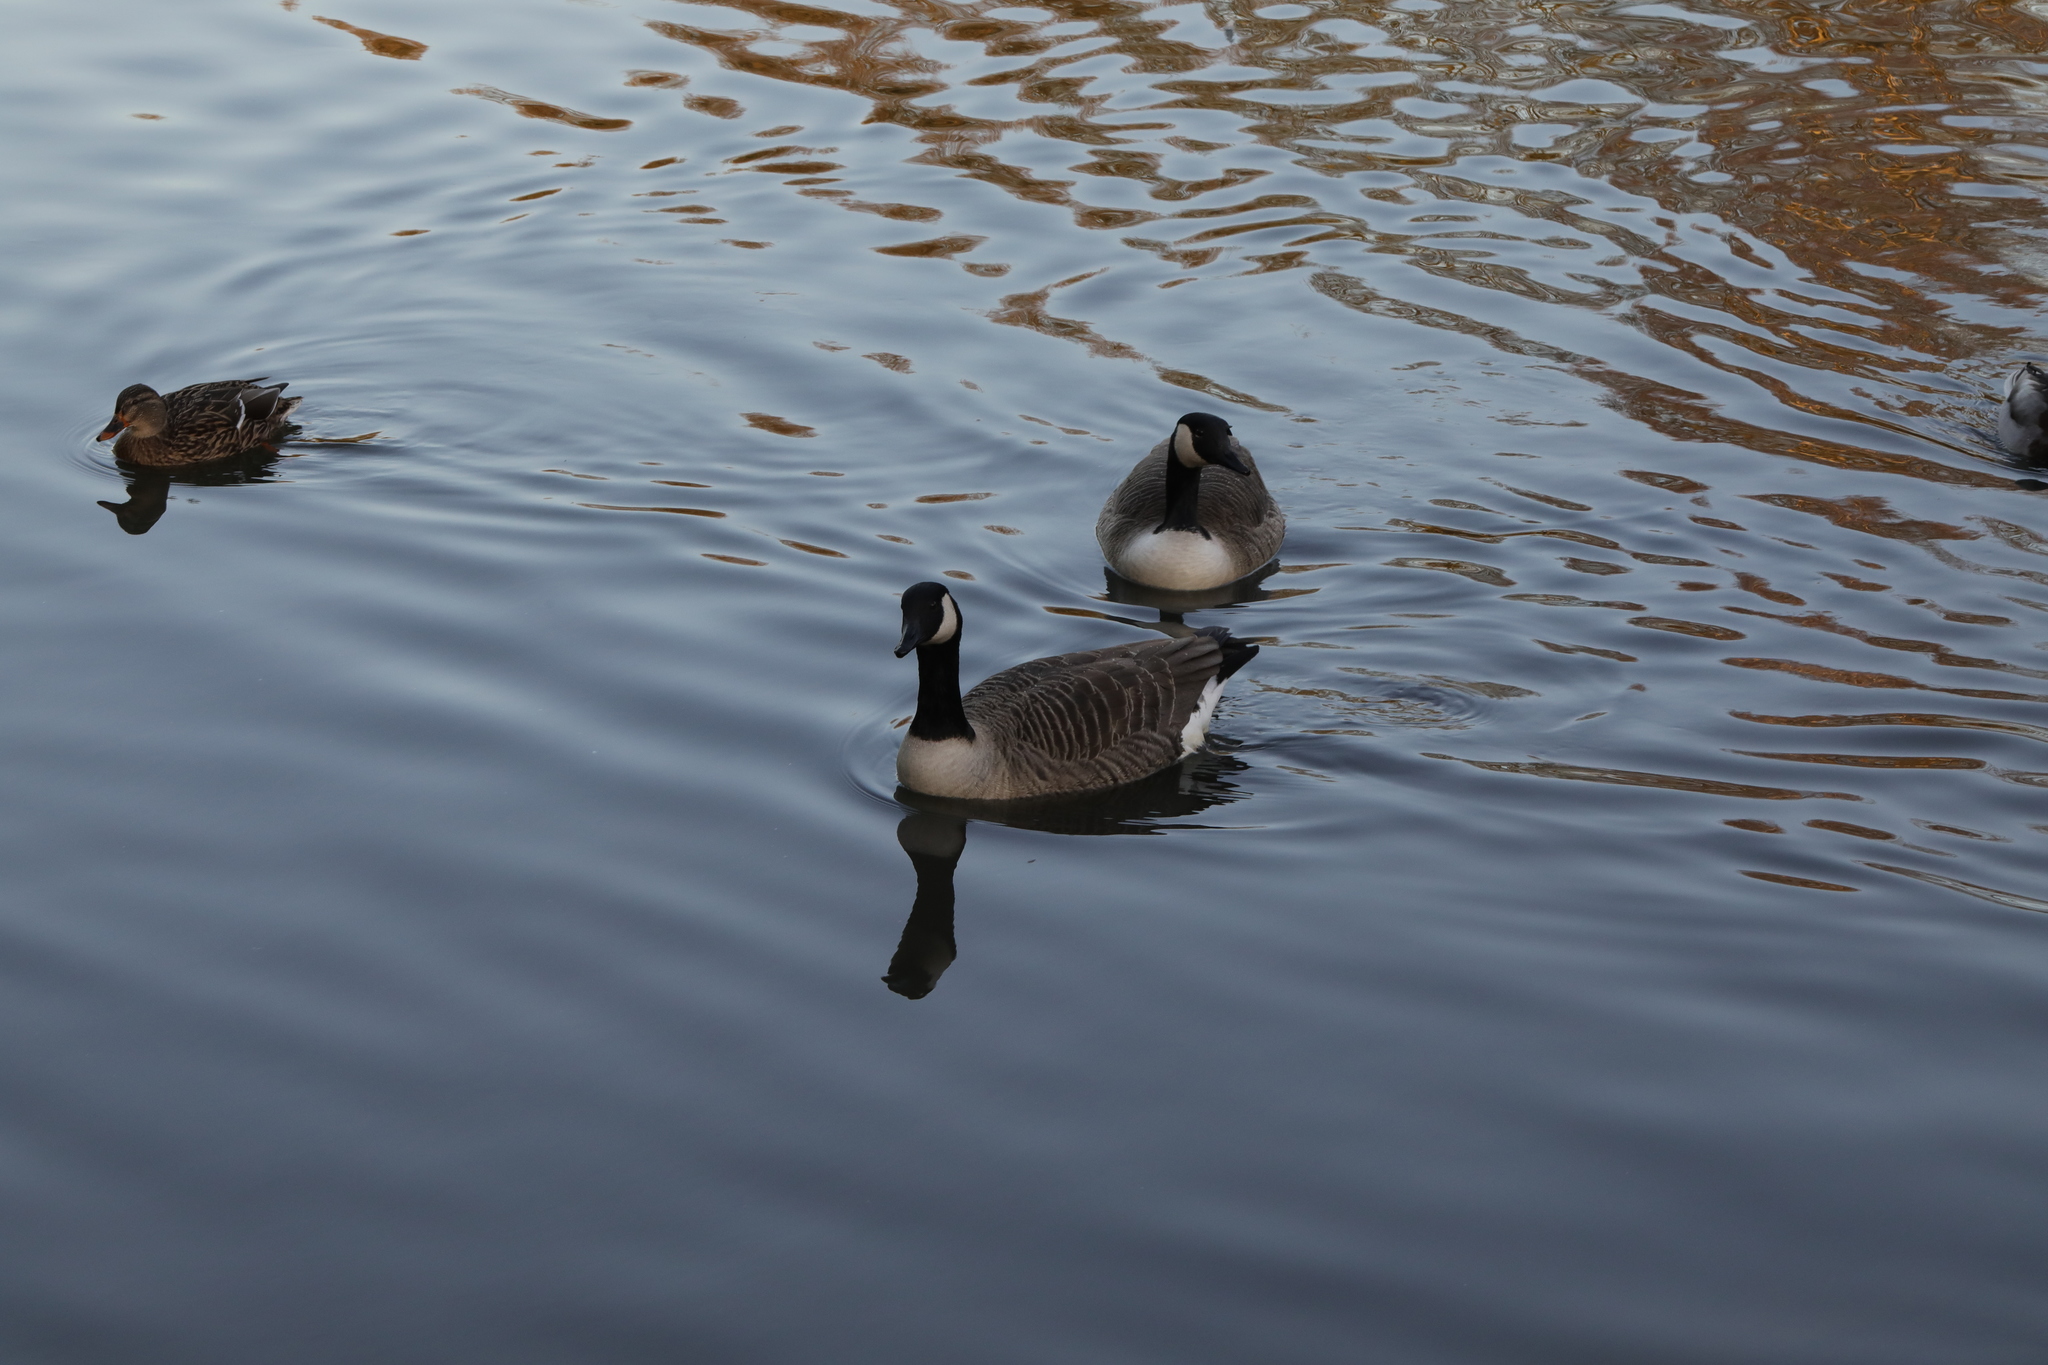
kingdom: Animalia
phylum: Chordata
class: Aves
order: Anseriformes
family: Anatidae
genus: Branta
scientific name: Branta canadensis
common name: Canada goose
